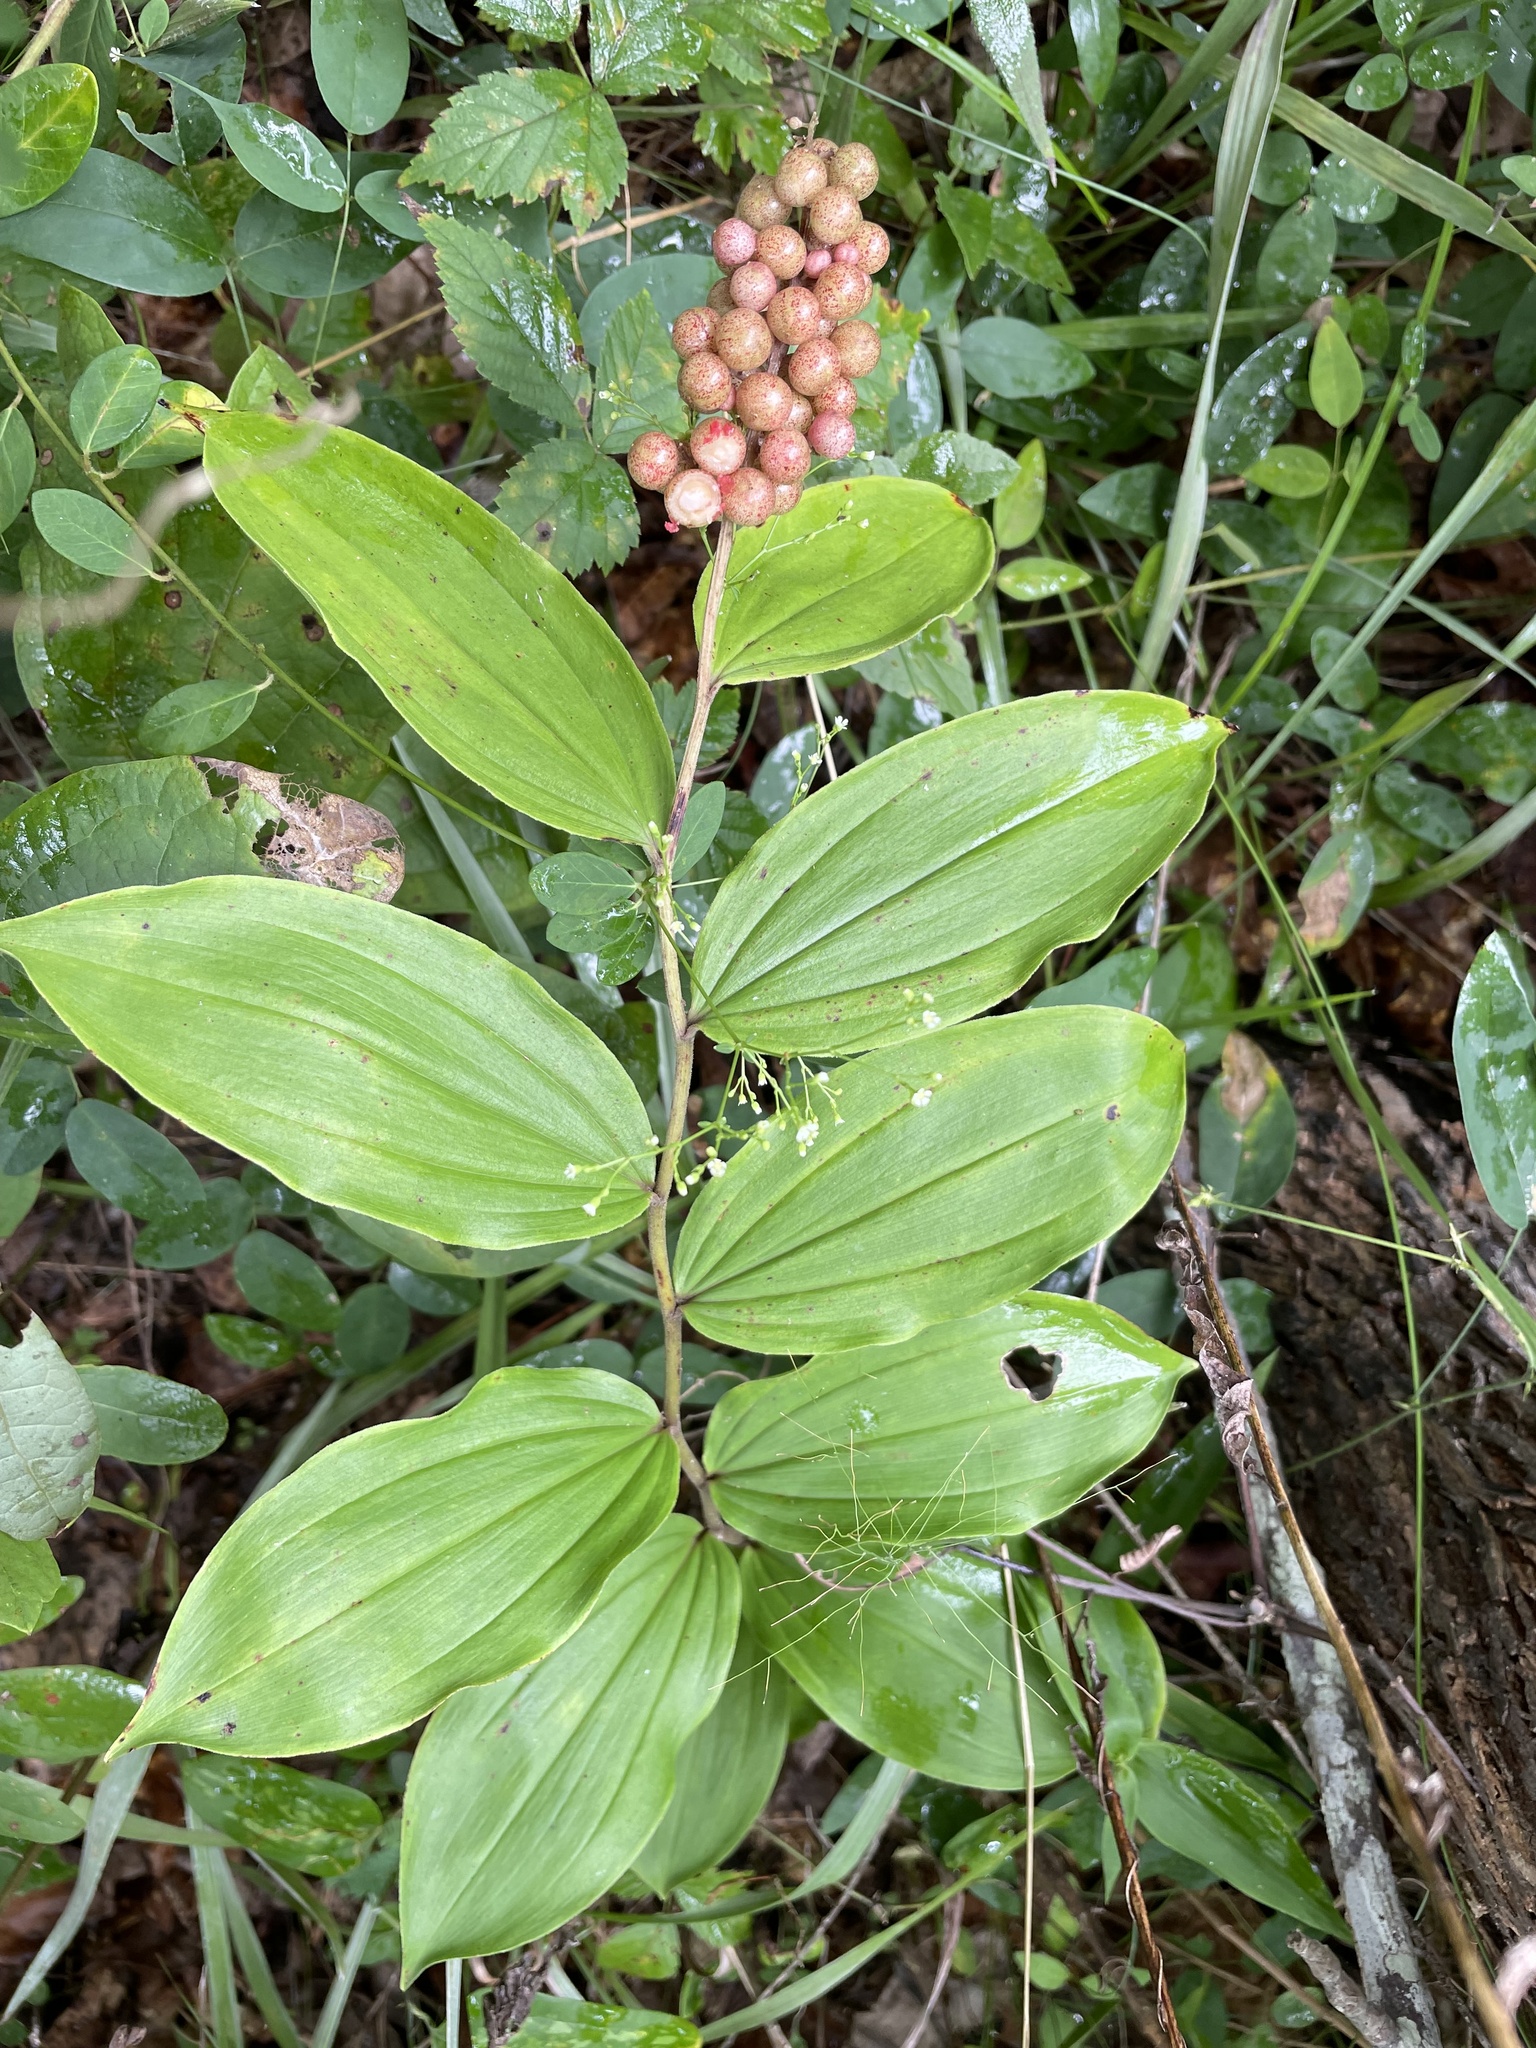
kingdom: Plantae
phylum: Tracheophyta
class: Liliopsida
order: Asparagales
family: Asparagaceae
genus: Maianthemum
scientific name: Maianthemum racemosum
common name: False spikenard
